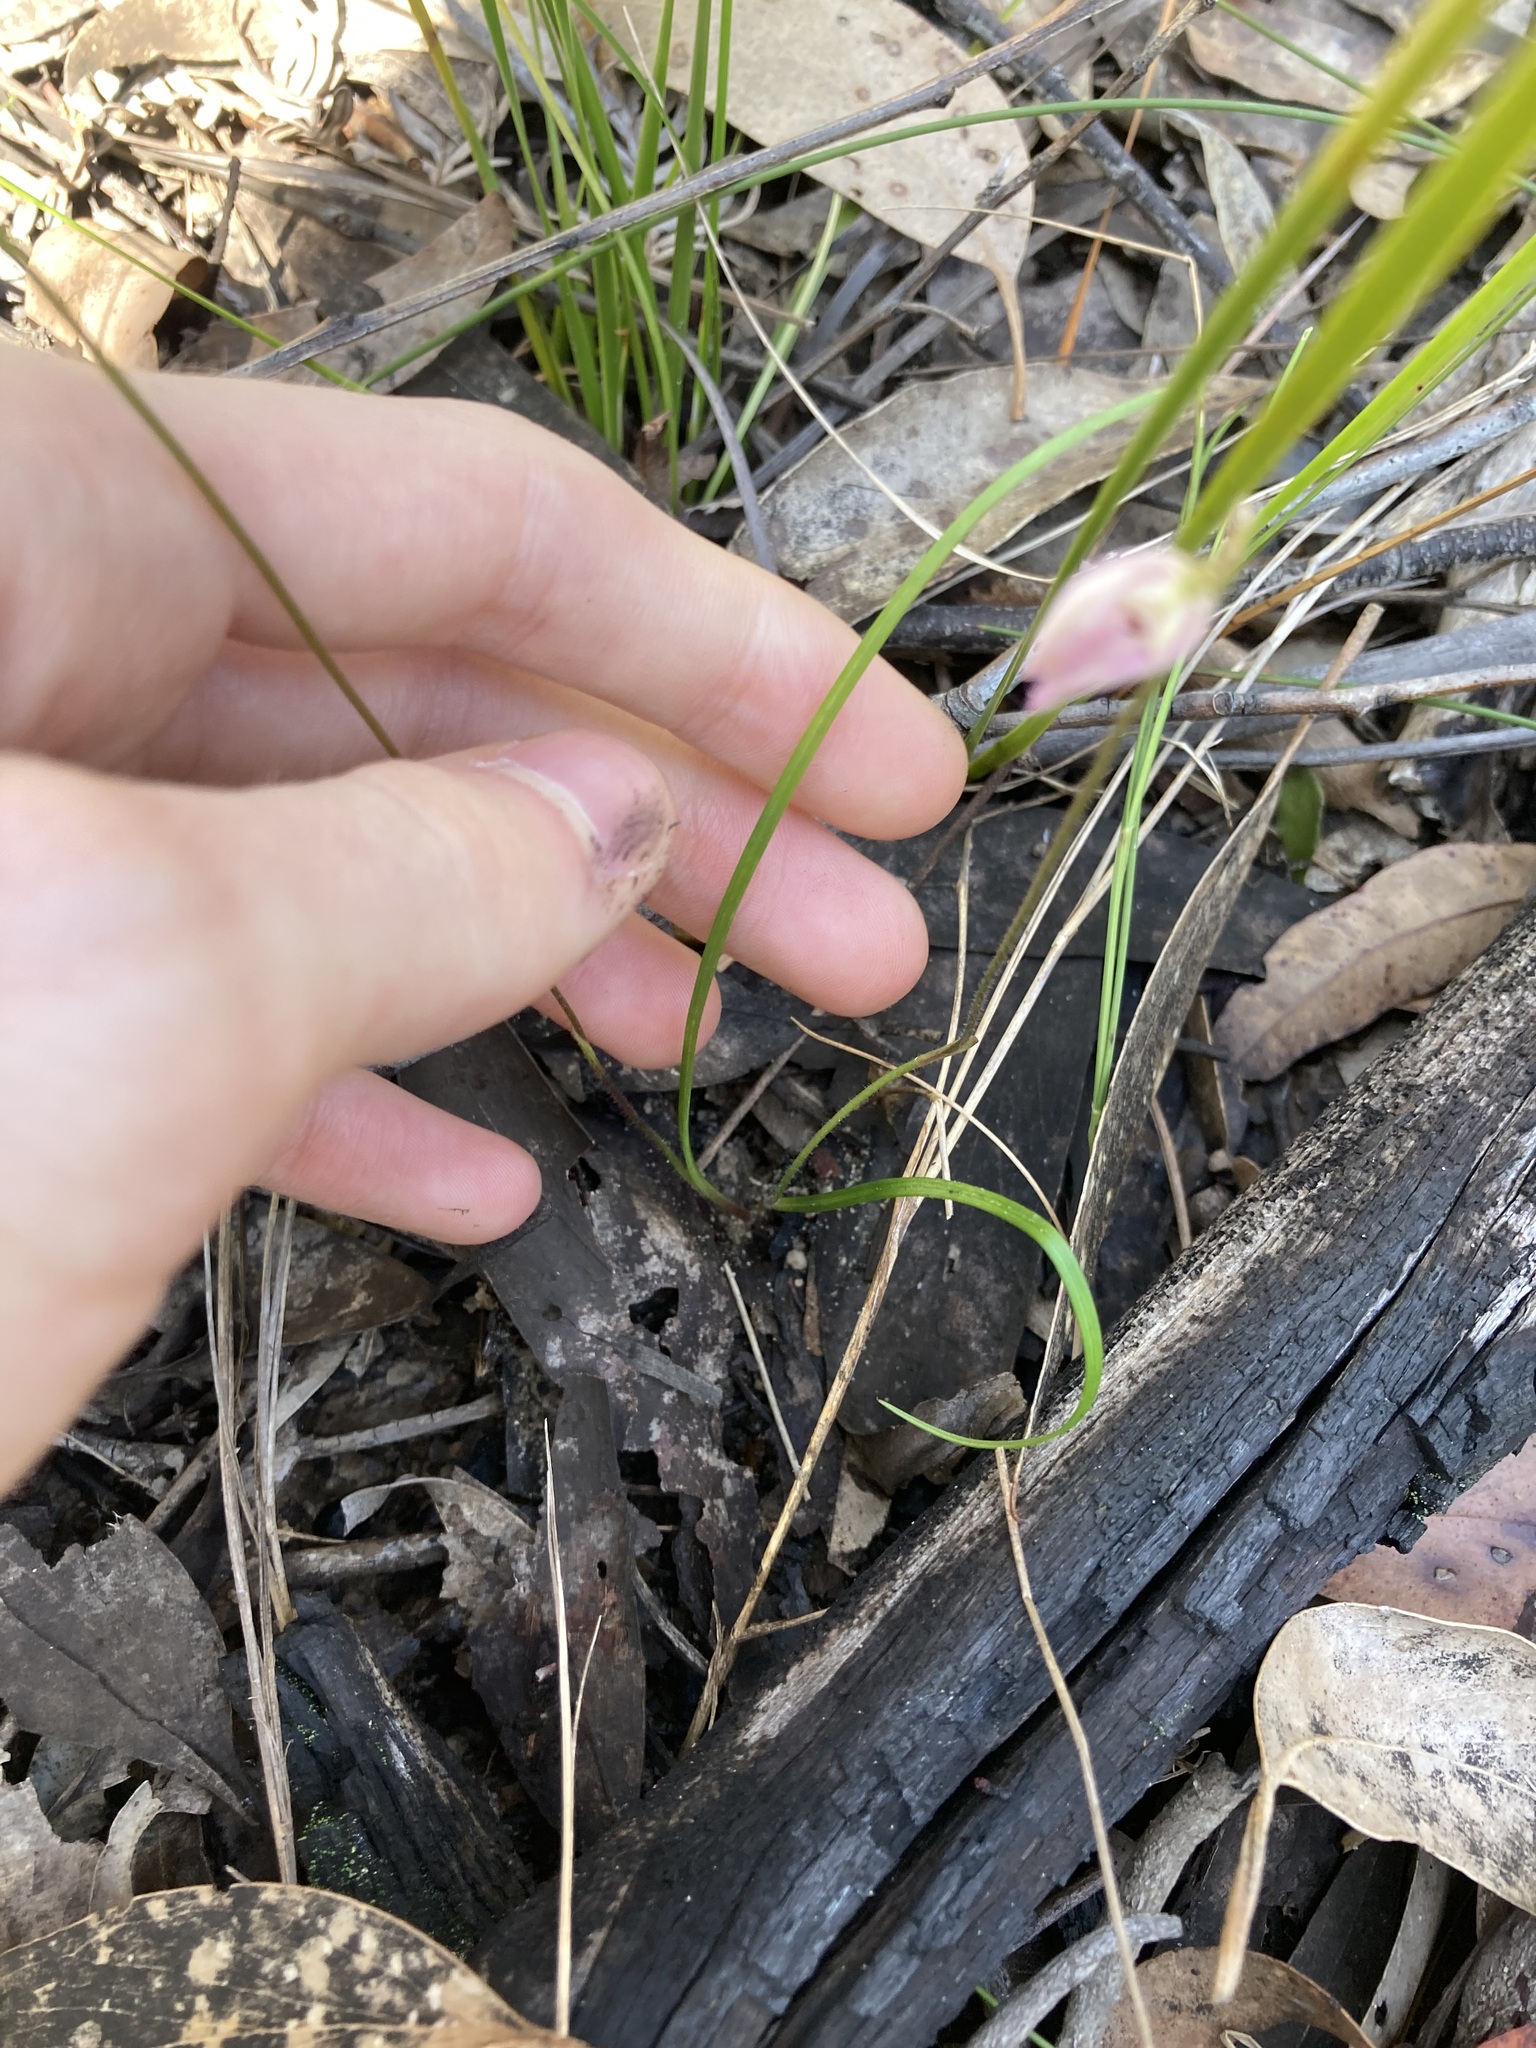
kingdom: Plantae
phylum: Tracheophyta
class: Liliopsida
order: Asparagales
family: Orchidaceae
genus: Caladenia
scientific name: Caladenia catenata
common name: White caladenia
